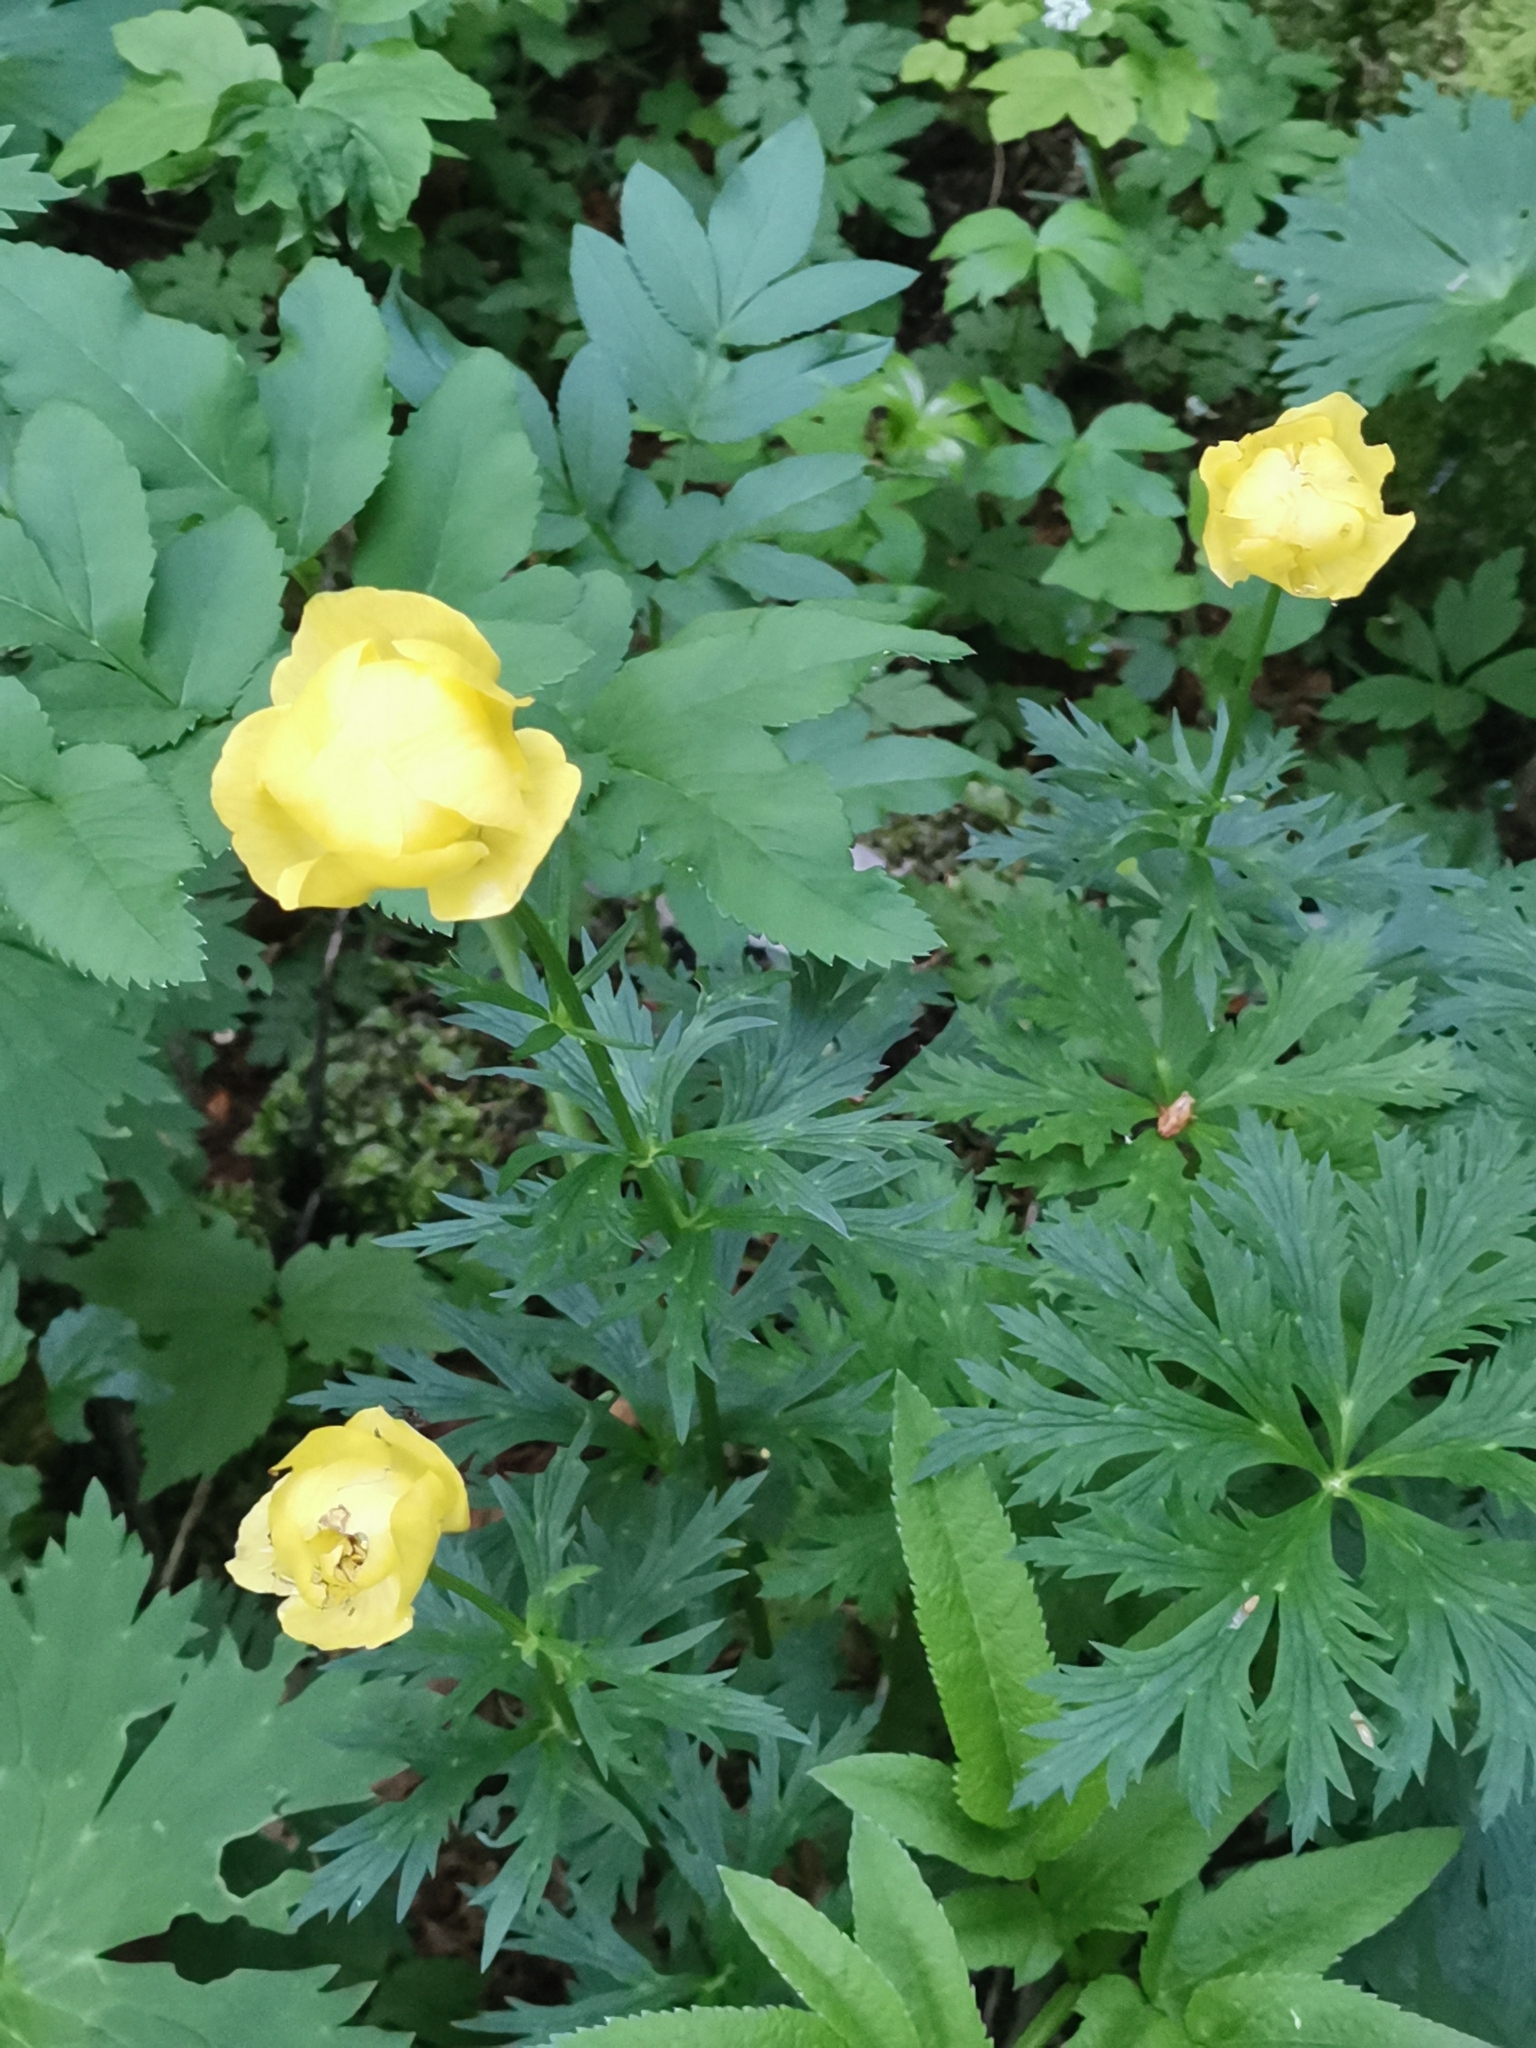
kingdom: Plantae
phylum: Tracheophyta
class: Magnoliopsida
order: Ranunculales
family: Ranunculaceae
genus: Trollius
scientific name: Trollius europaeus
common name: European globeflower
